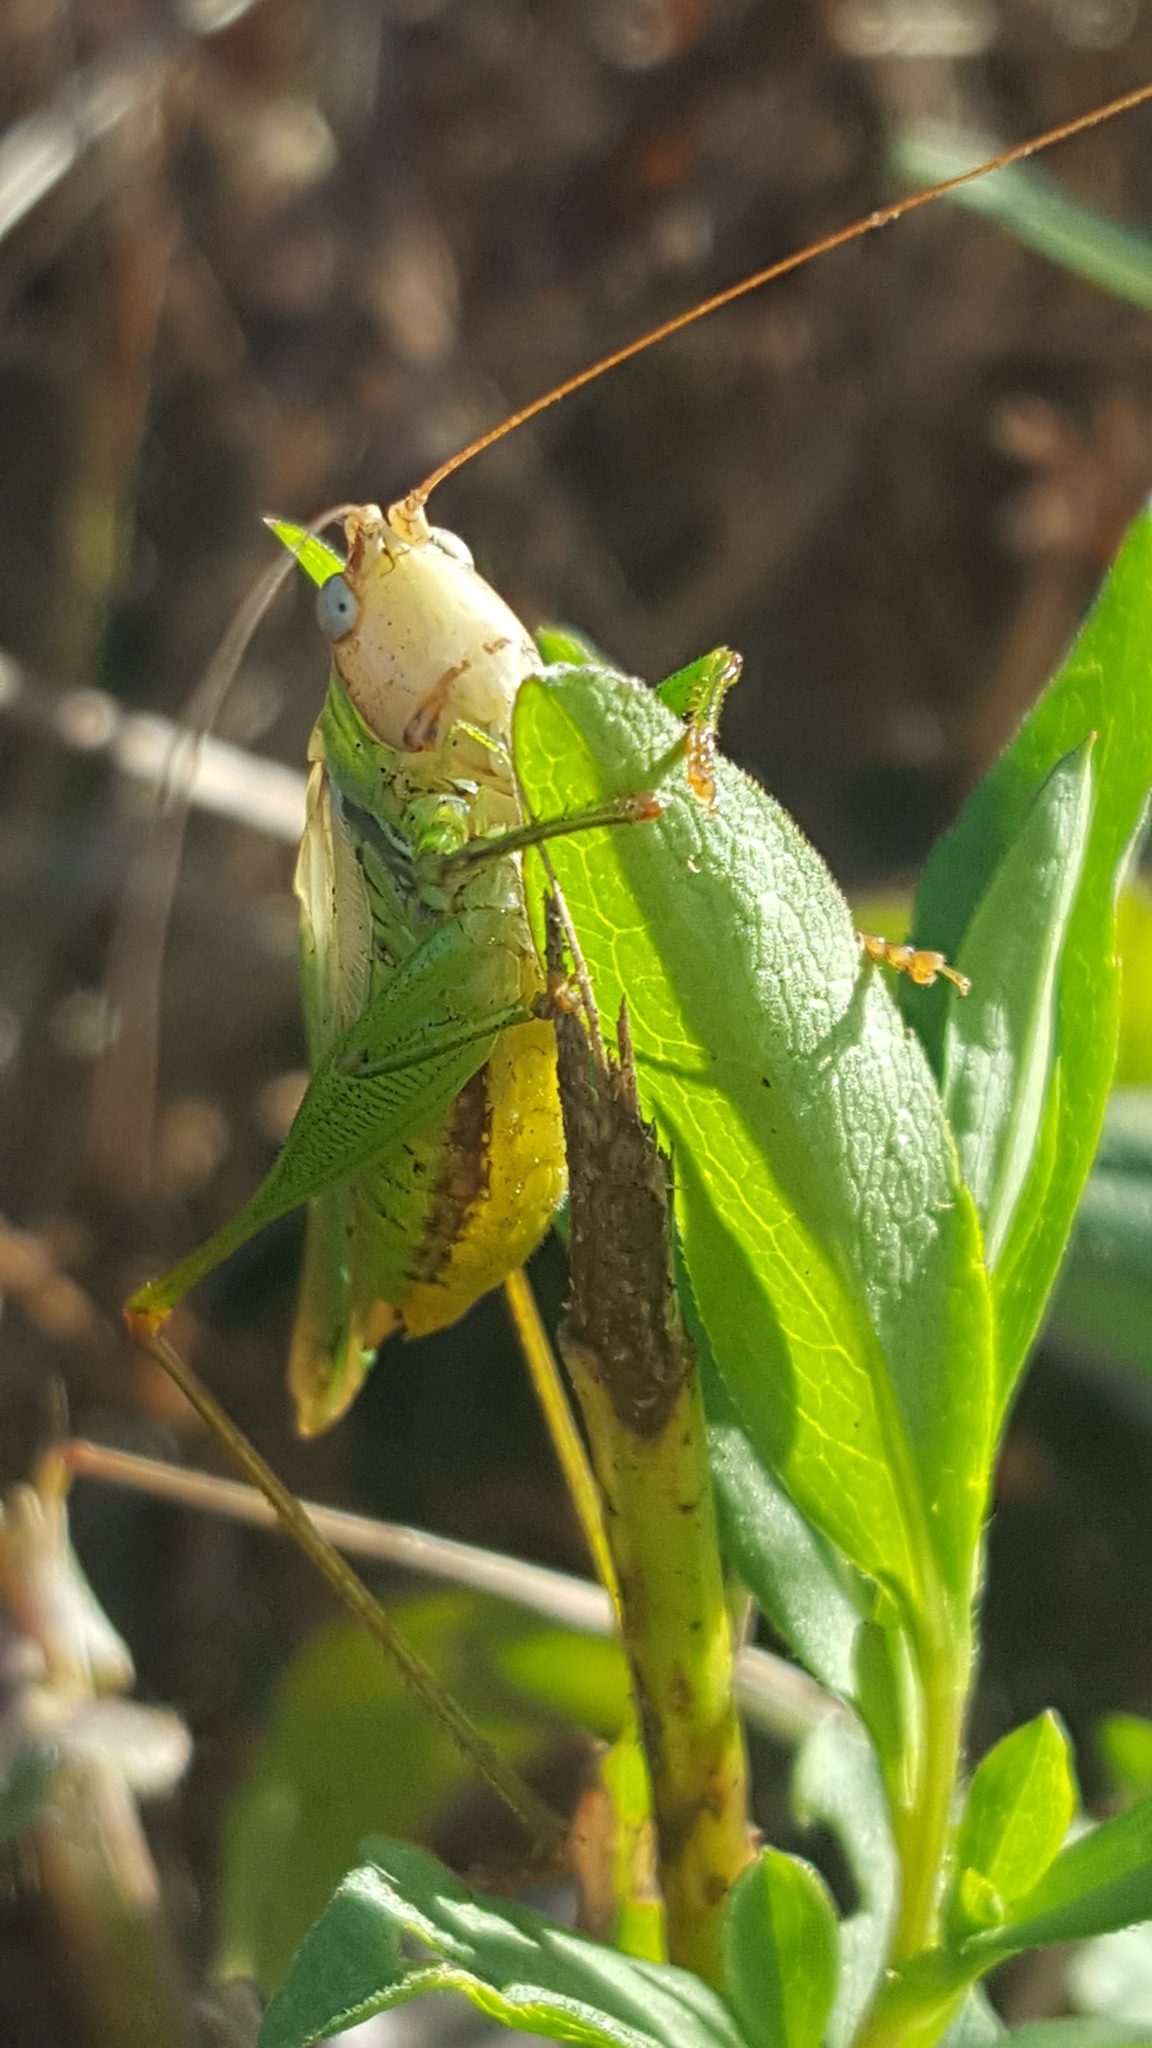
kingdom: Animalia
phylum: Arthropoda
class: Insecta
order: Orthoptera
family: Tettigoniidae
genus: Orchelimum
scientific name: Orchelimum
